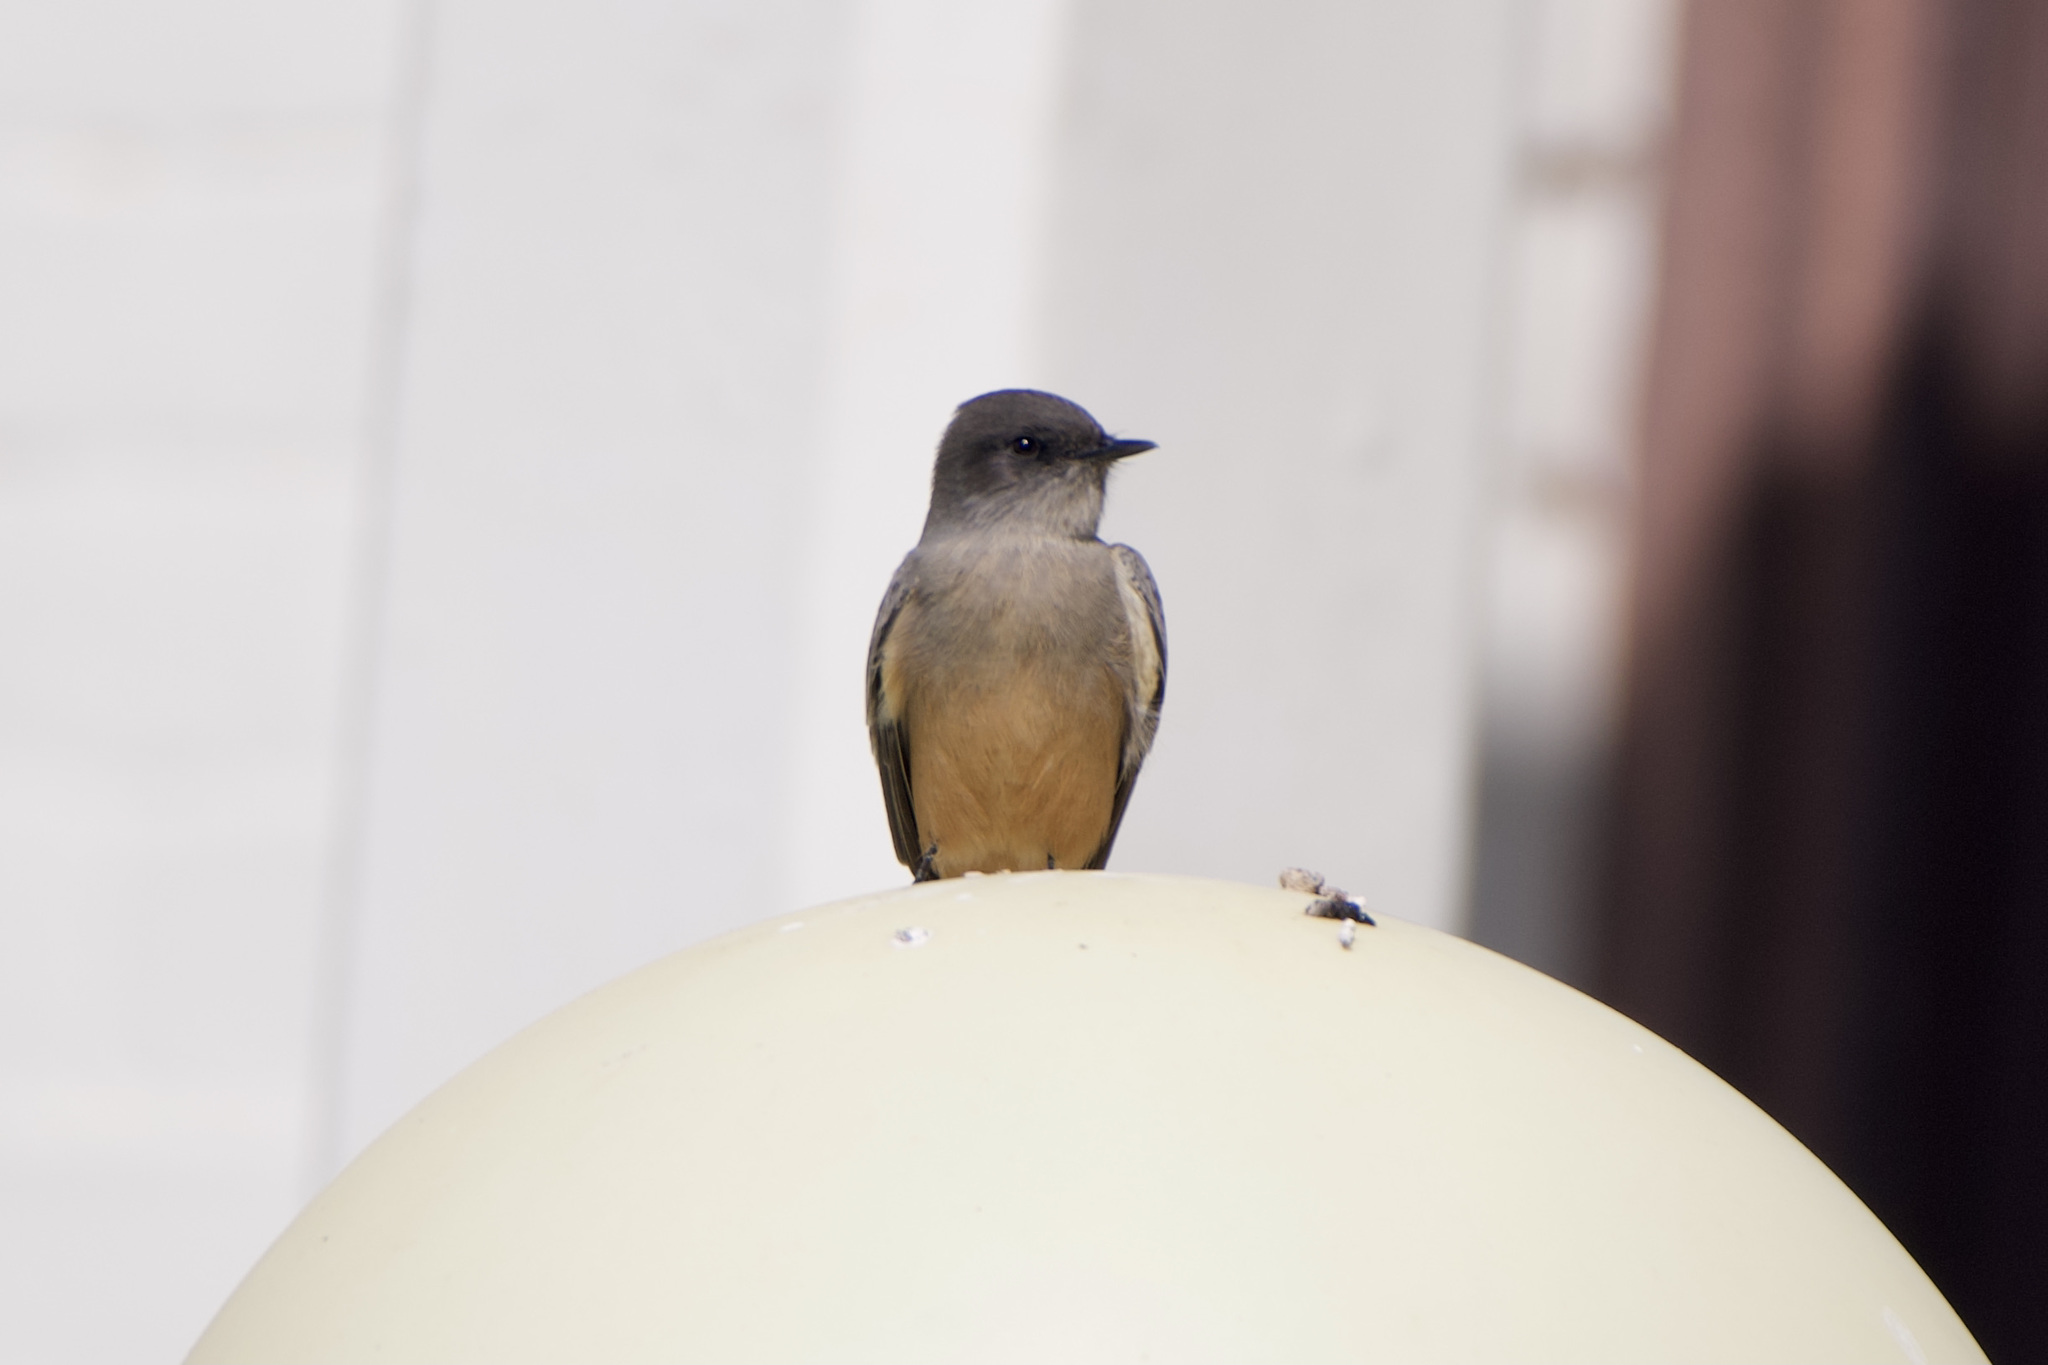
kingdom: Animalia
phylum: Chordata
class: Aves
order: Passeriformes
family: Tyrannidae
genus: Sayornis
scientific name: Sayornis saya
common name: Say's phoebe
